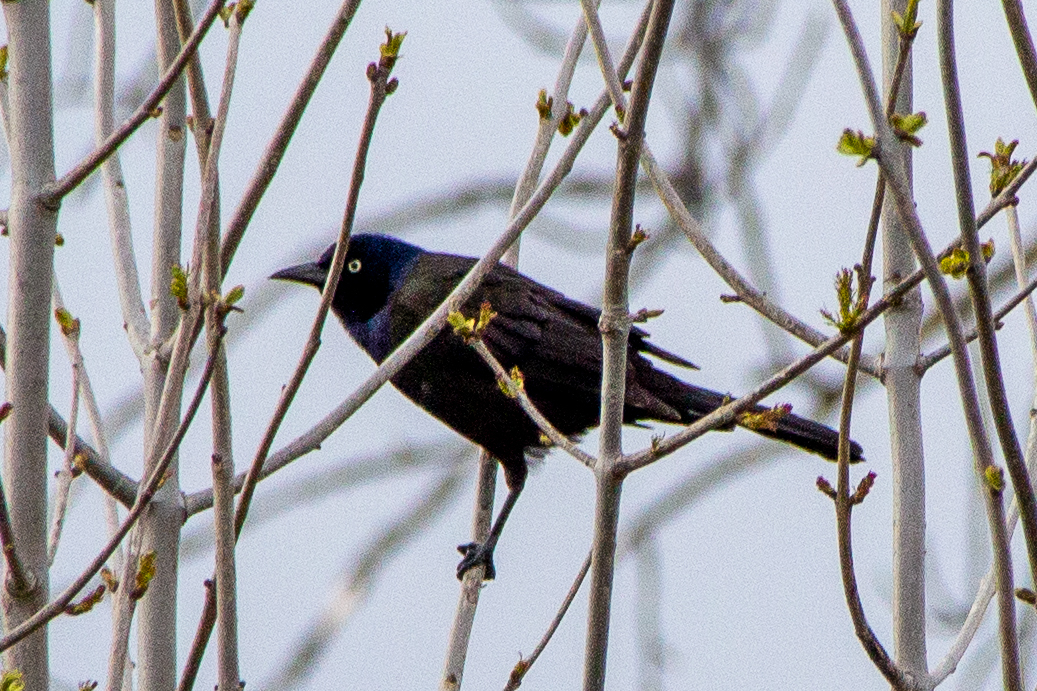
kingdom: Animalia
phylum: Chordata
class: Aves
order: Passeriformes
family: Icteridae
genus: Quiscalus
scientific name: Quiscalus quiscula
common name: Common grackle
